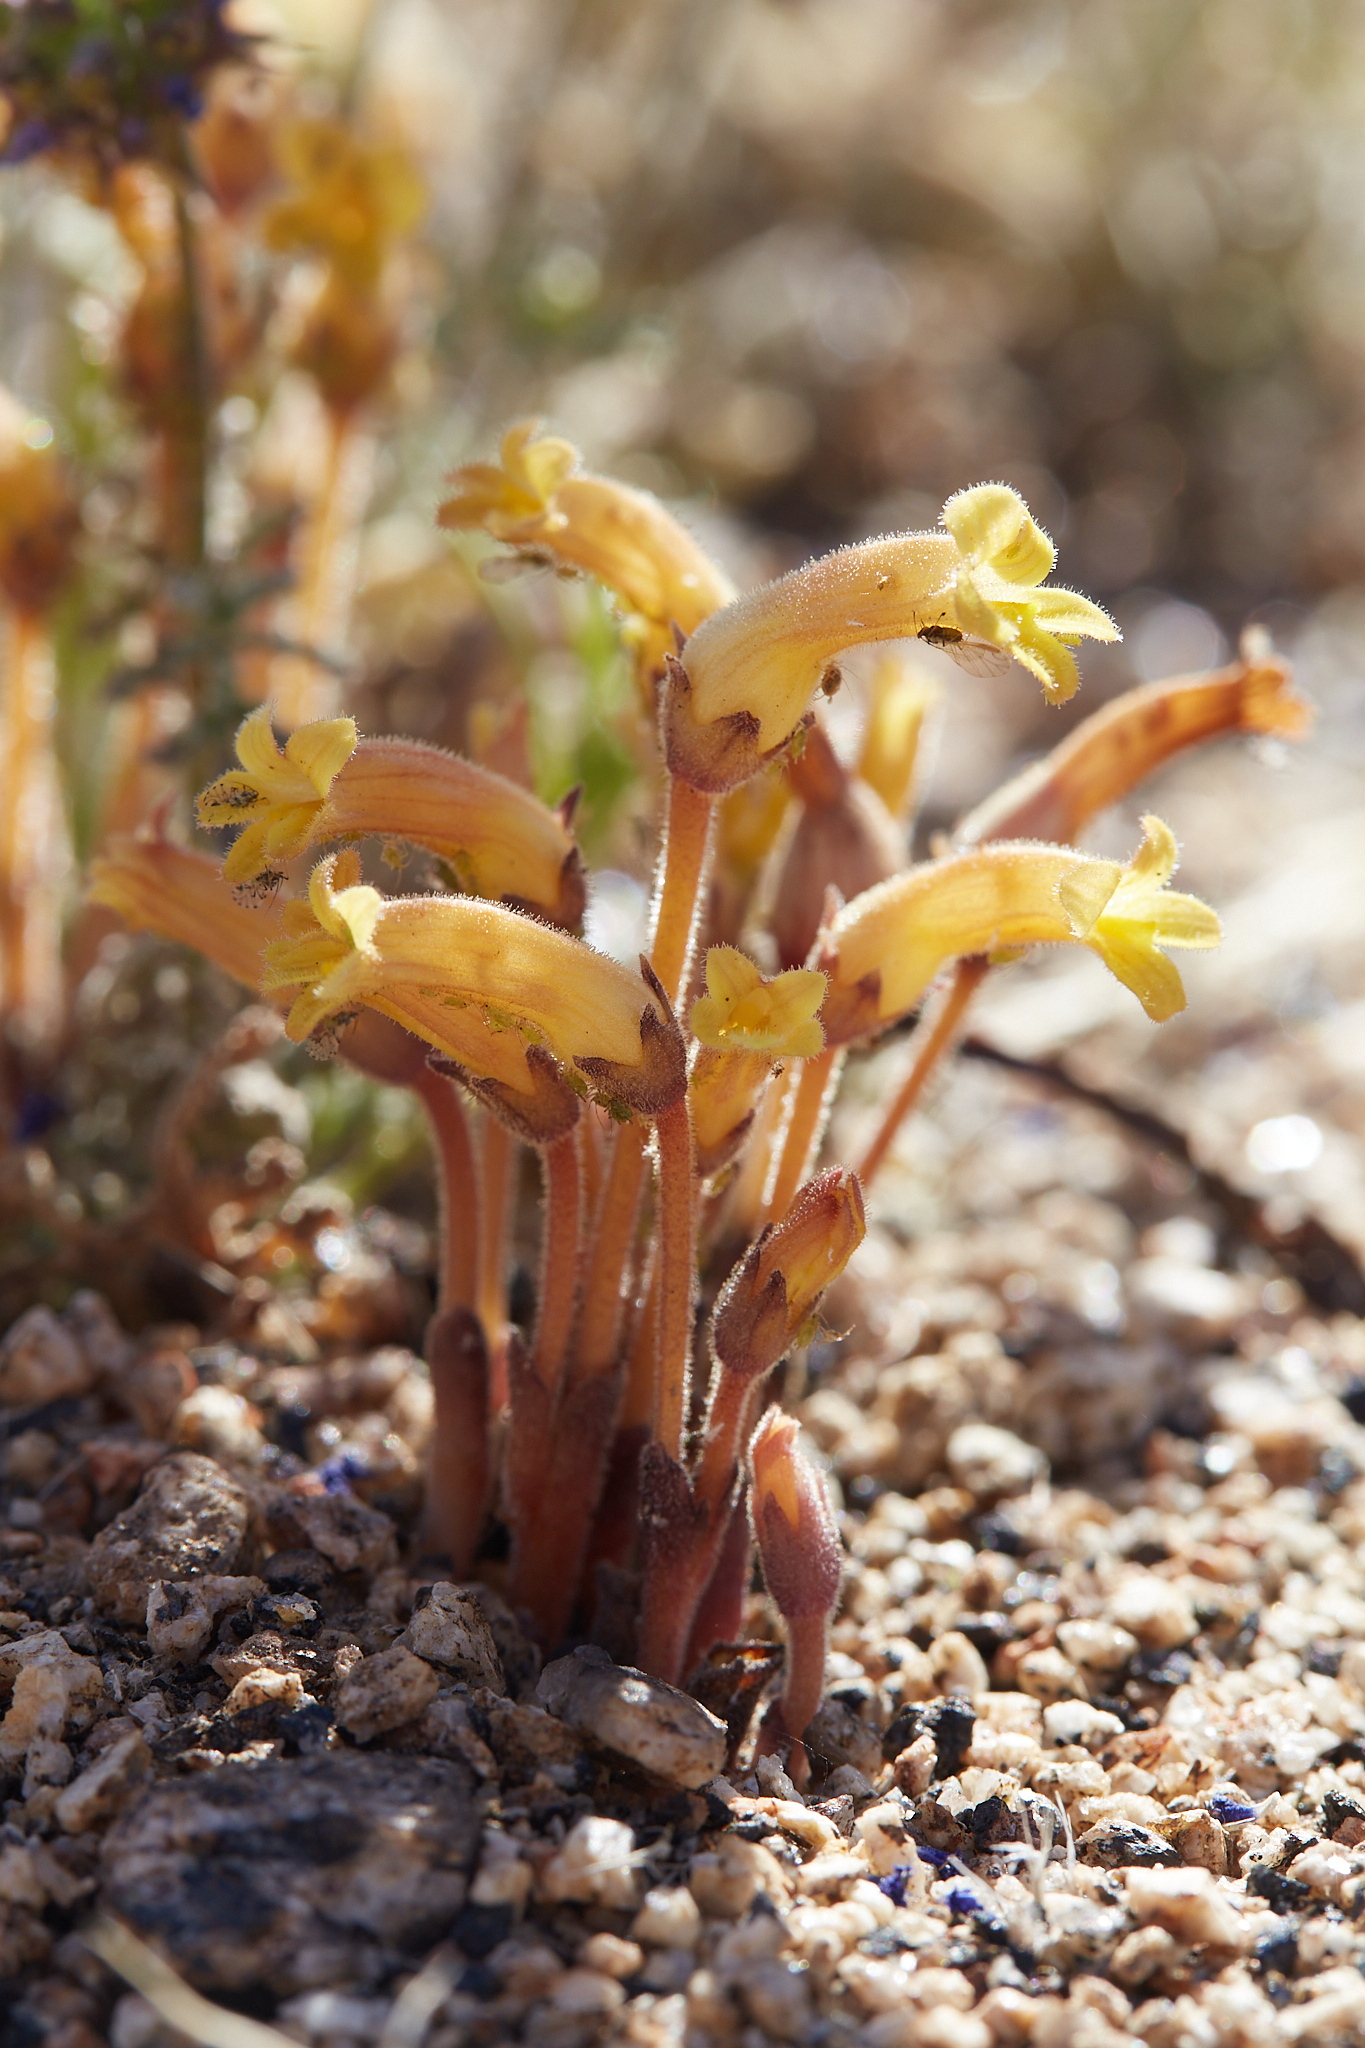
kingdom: Plantae
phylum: Tracheophyta
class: Magnoliopsida
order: Lamiales
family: Orobanchaceae
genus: Aphyllon
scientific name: Aphyllon franciscanum
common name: San francisco broomrape
